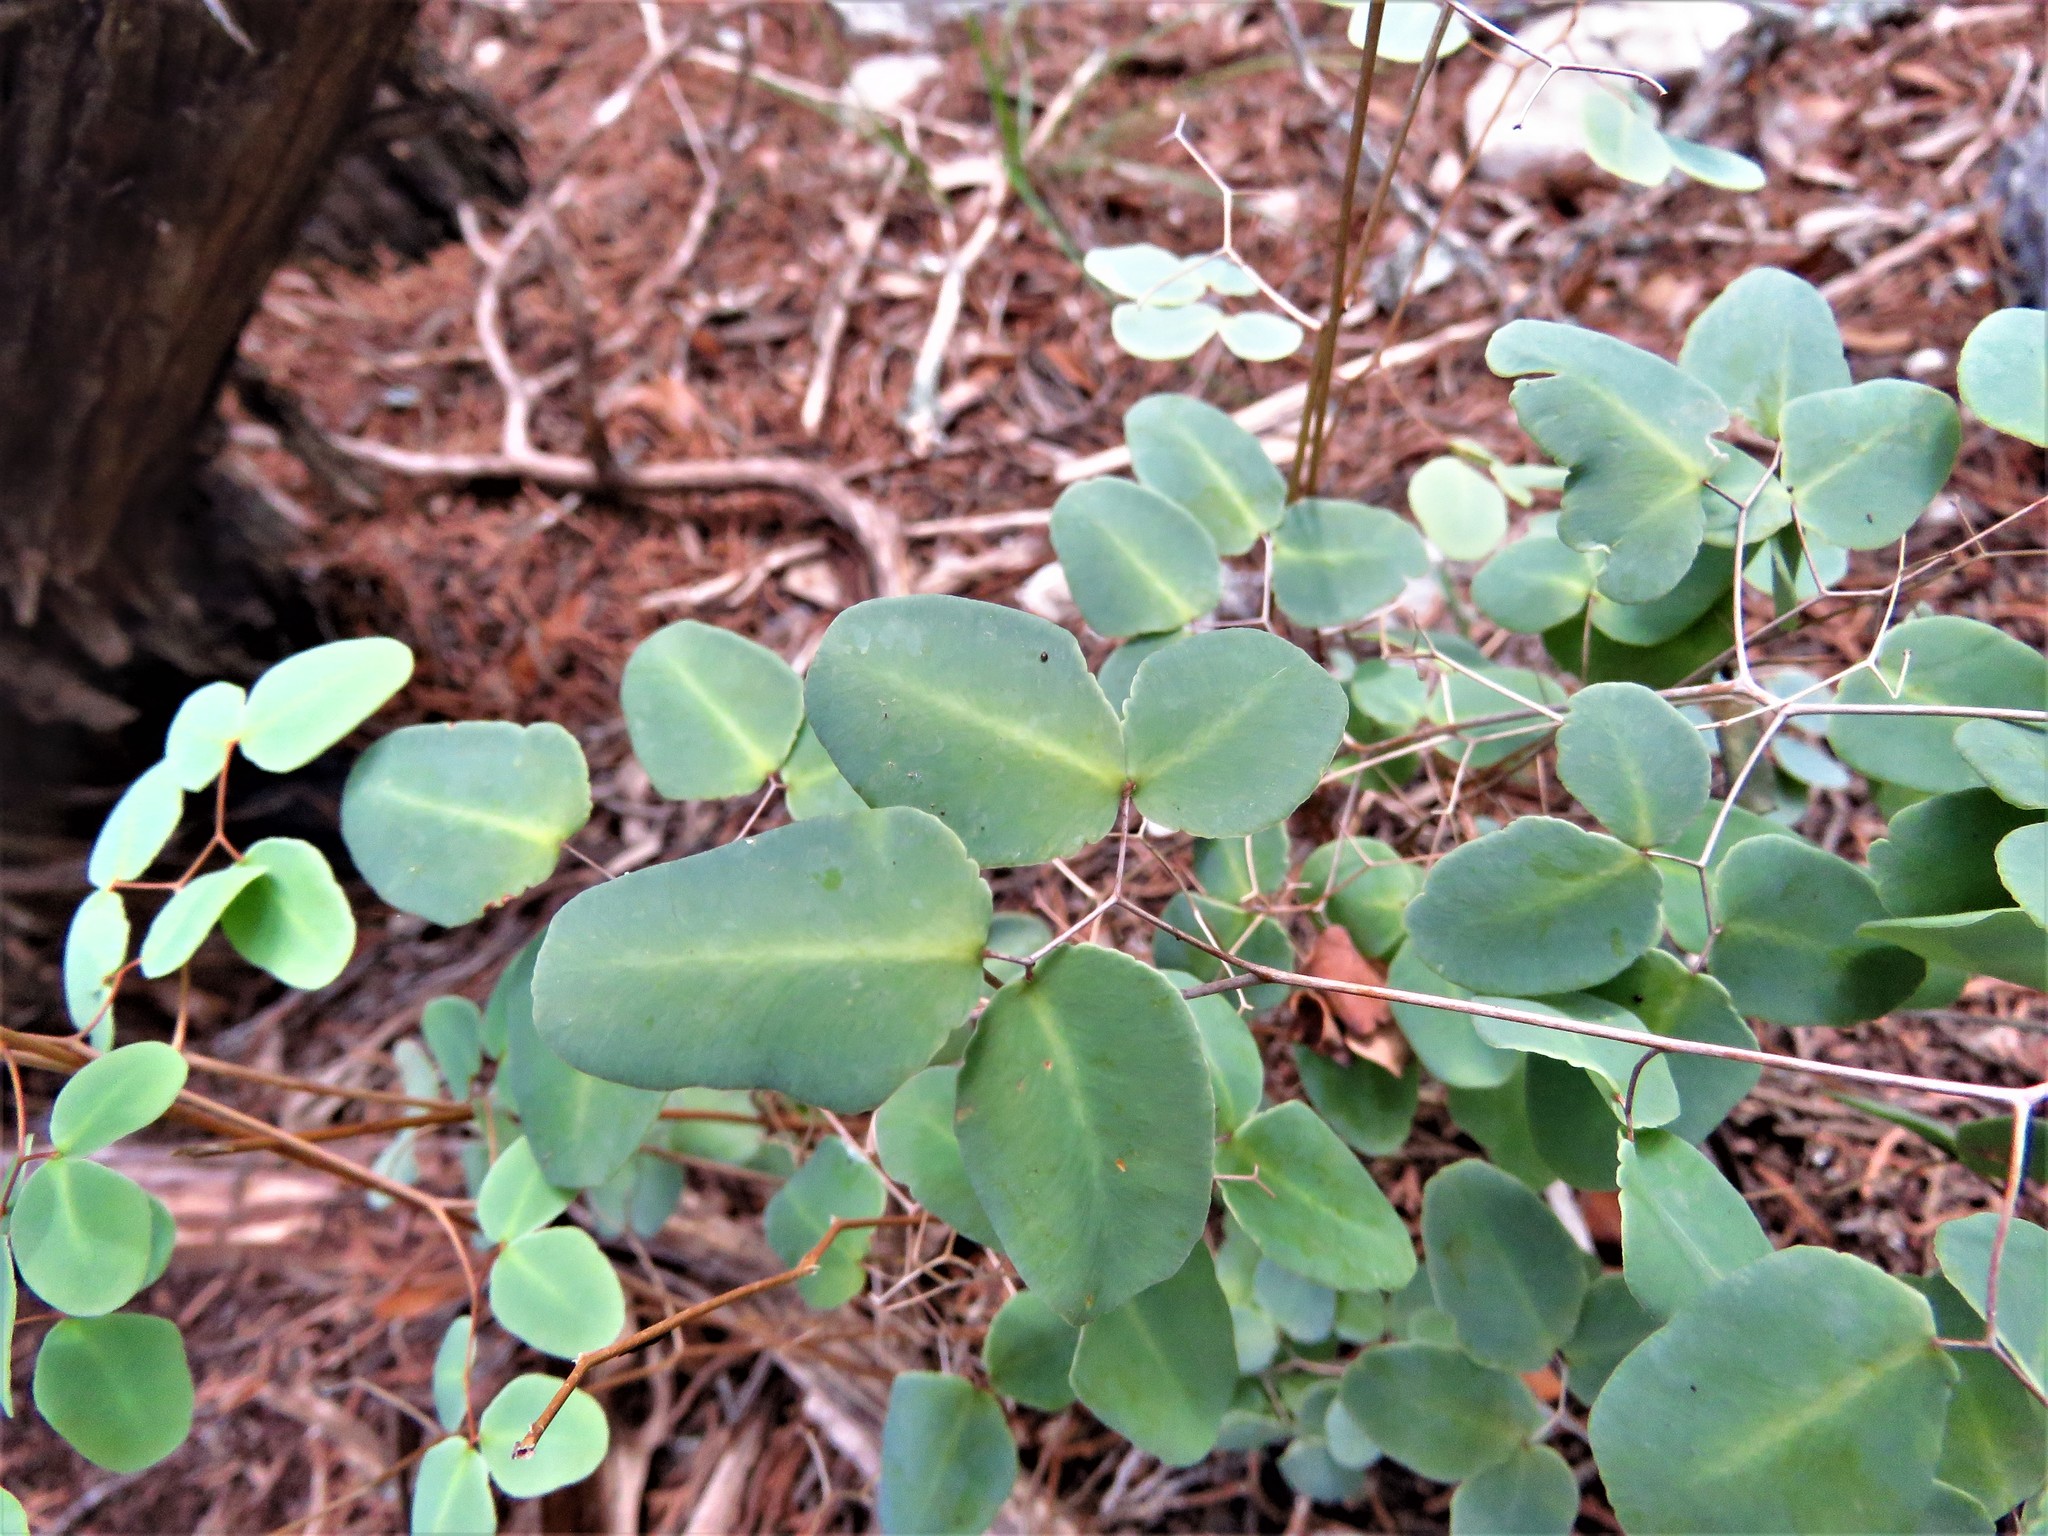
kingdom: Plantae
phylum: Tracheophyta
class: Polypodiopsida
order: Polypodiales
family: Pteridaceae
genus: Pellaea
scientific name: Pellaea ovata
